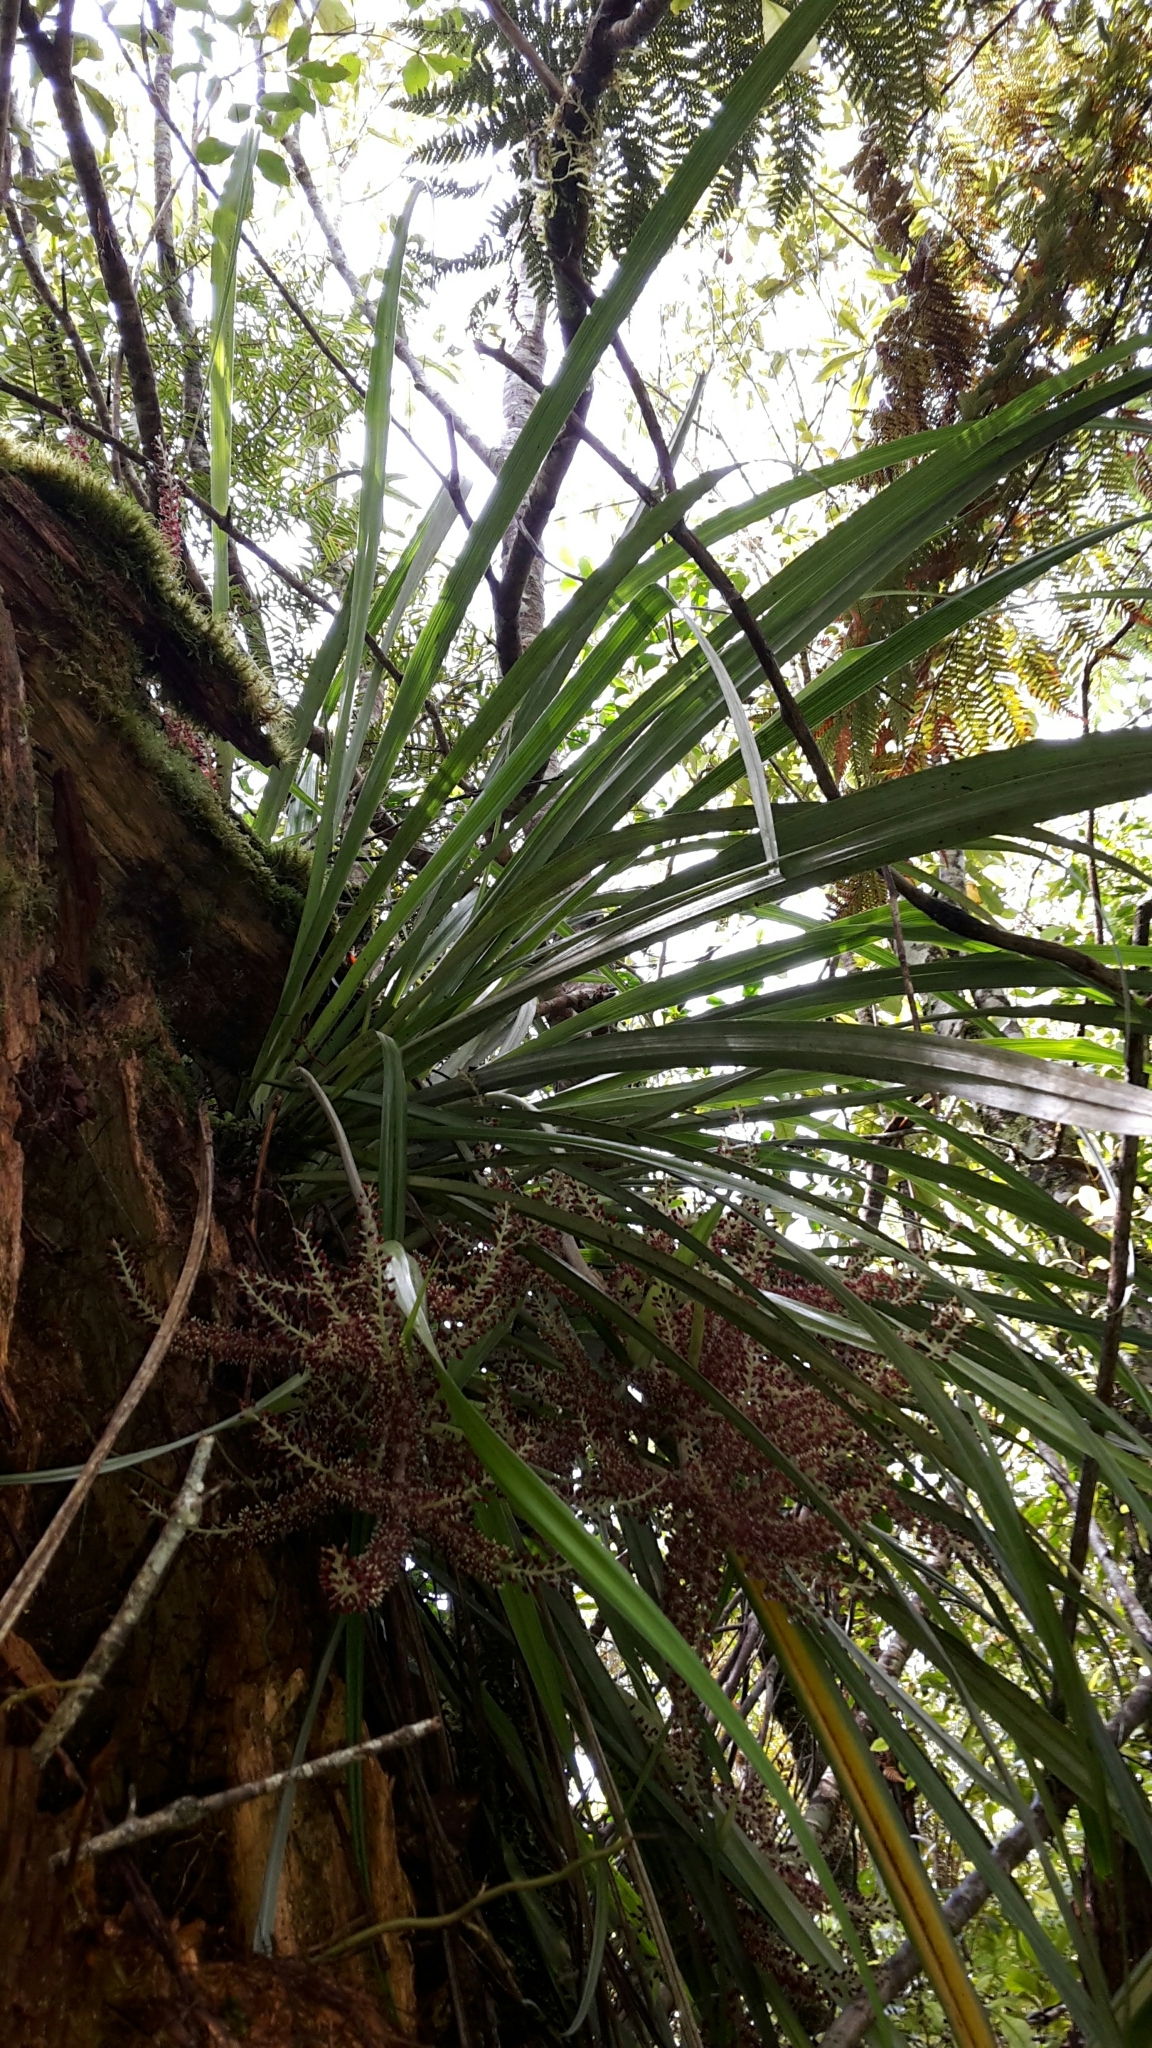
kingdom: Plantae
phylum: Tracheophyta
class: Liliopsida
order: Asparagales
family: Asteliaceae
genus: Astelia
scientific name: Astelia solandri
